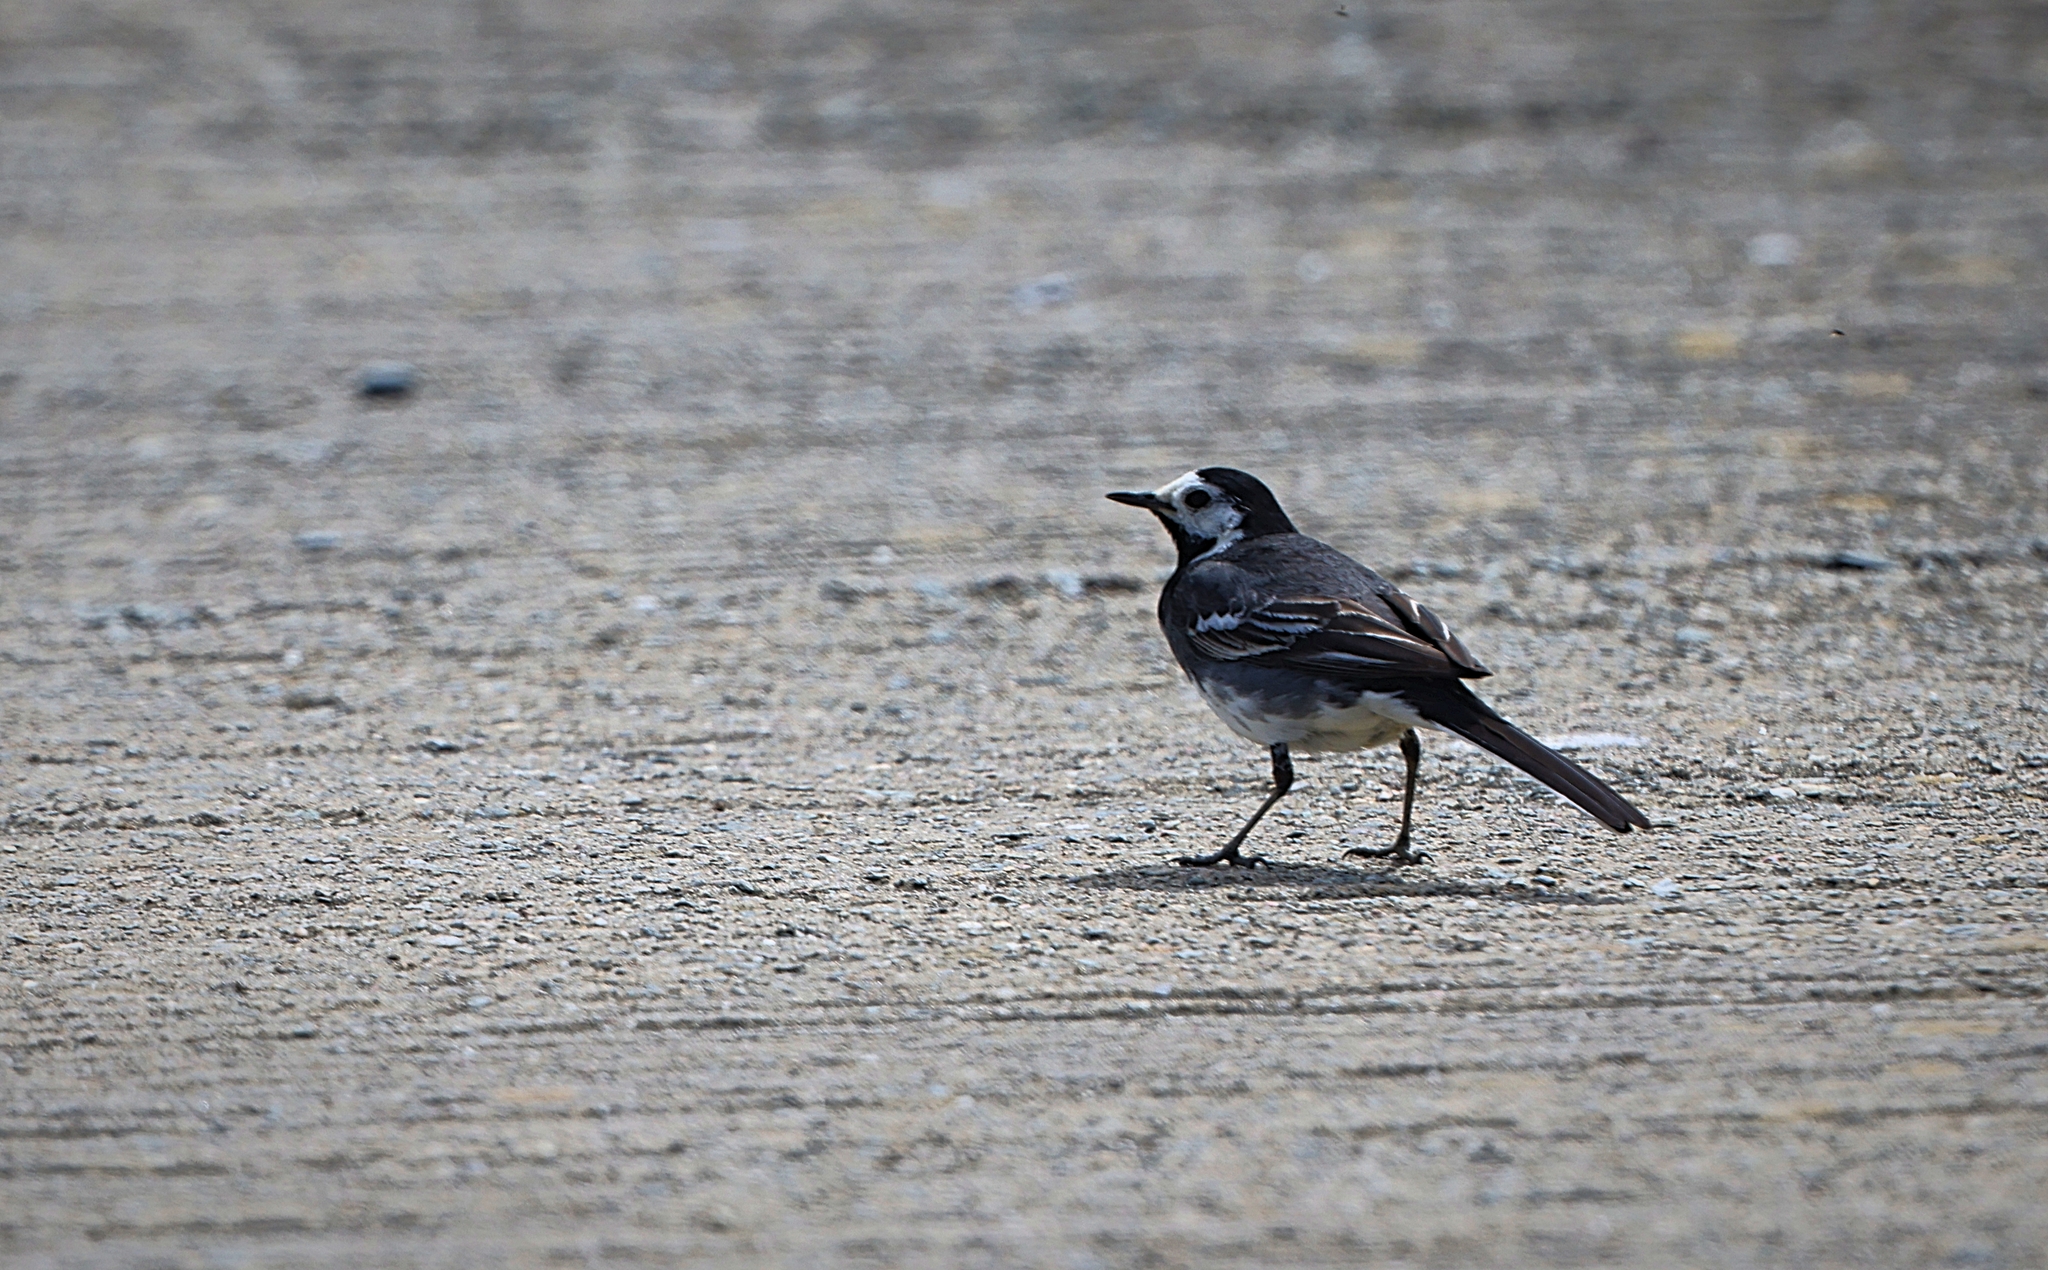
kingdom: Animalia
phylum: Chordata
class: Aves
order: Passeriformes
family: Motacillidae
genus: Motacilla
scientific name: Motacilla alba
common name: White wagtail
